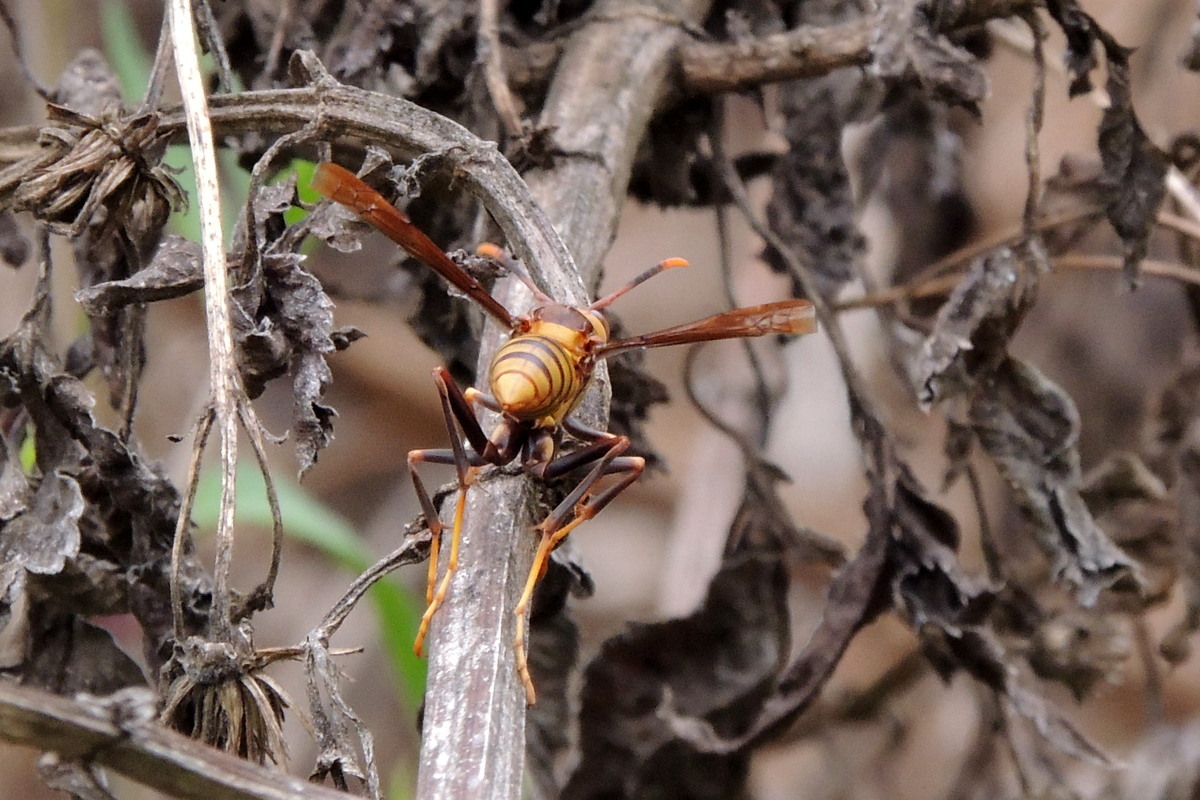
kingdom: Animalia
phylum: Arthropoda
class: Insecta
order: Hymenoptera
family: Eumenidae
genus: Polistes
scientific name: Polistes major
